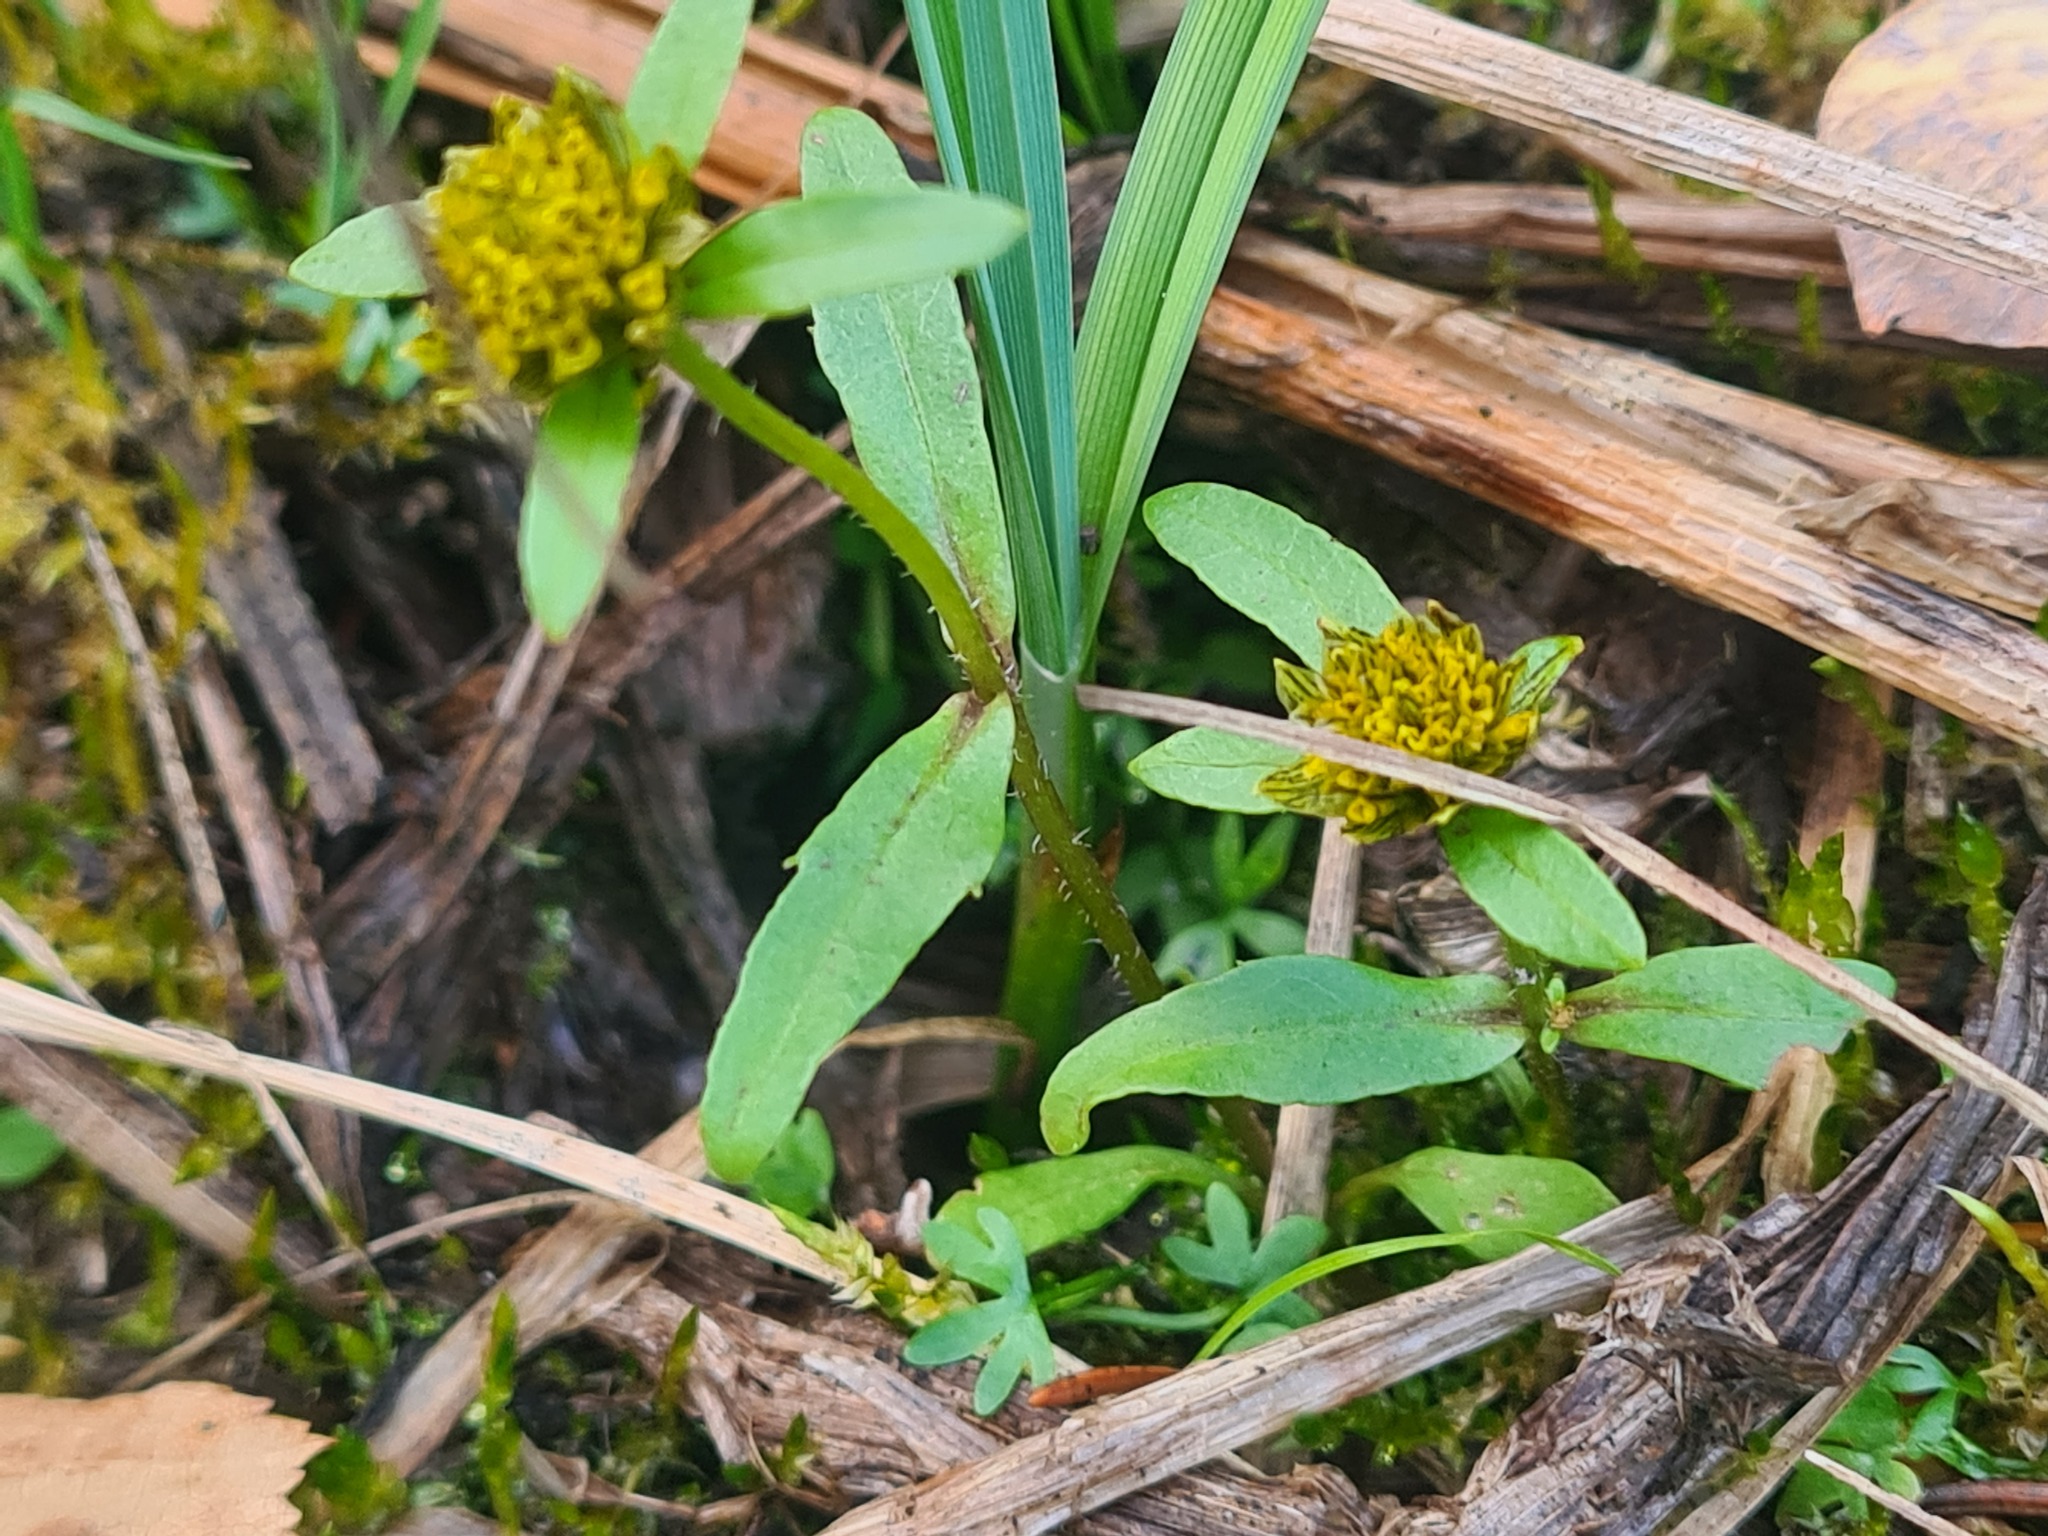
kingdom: Plantae
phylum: Tracheophyta
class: Magnoliopsida
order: Asterales
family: Asteraceae
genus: Bidens
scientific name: Bidens cernua
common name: Nodding bur-marigold
